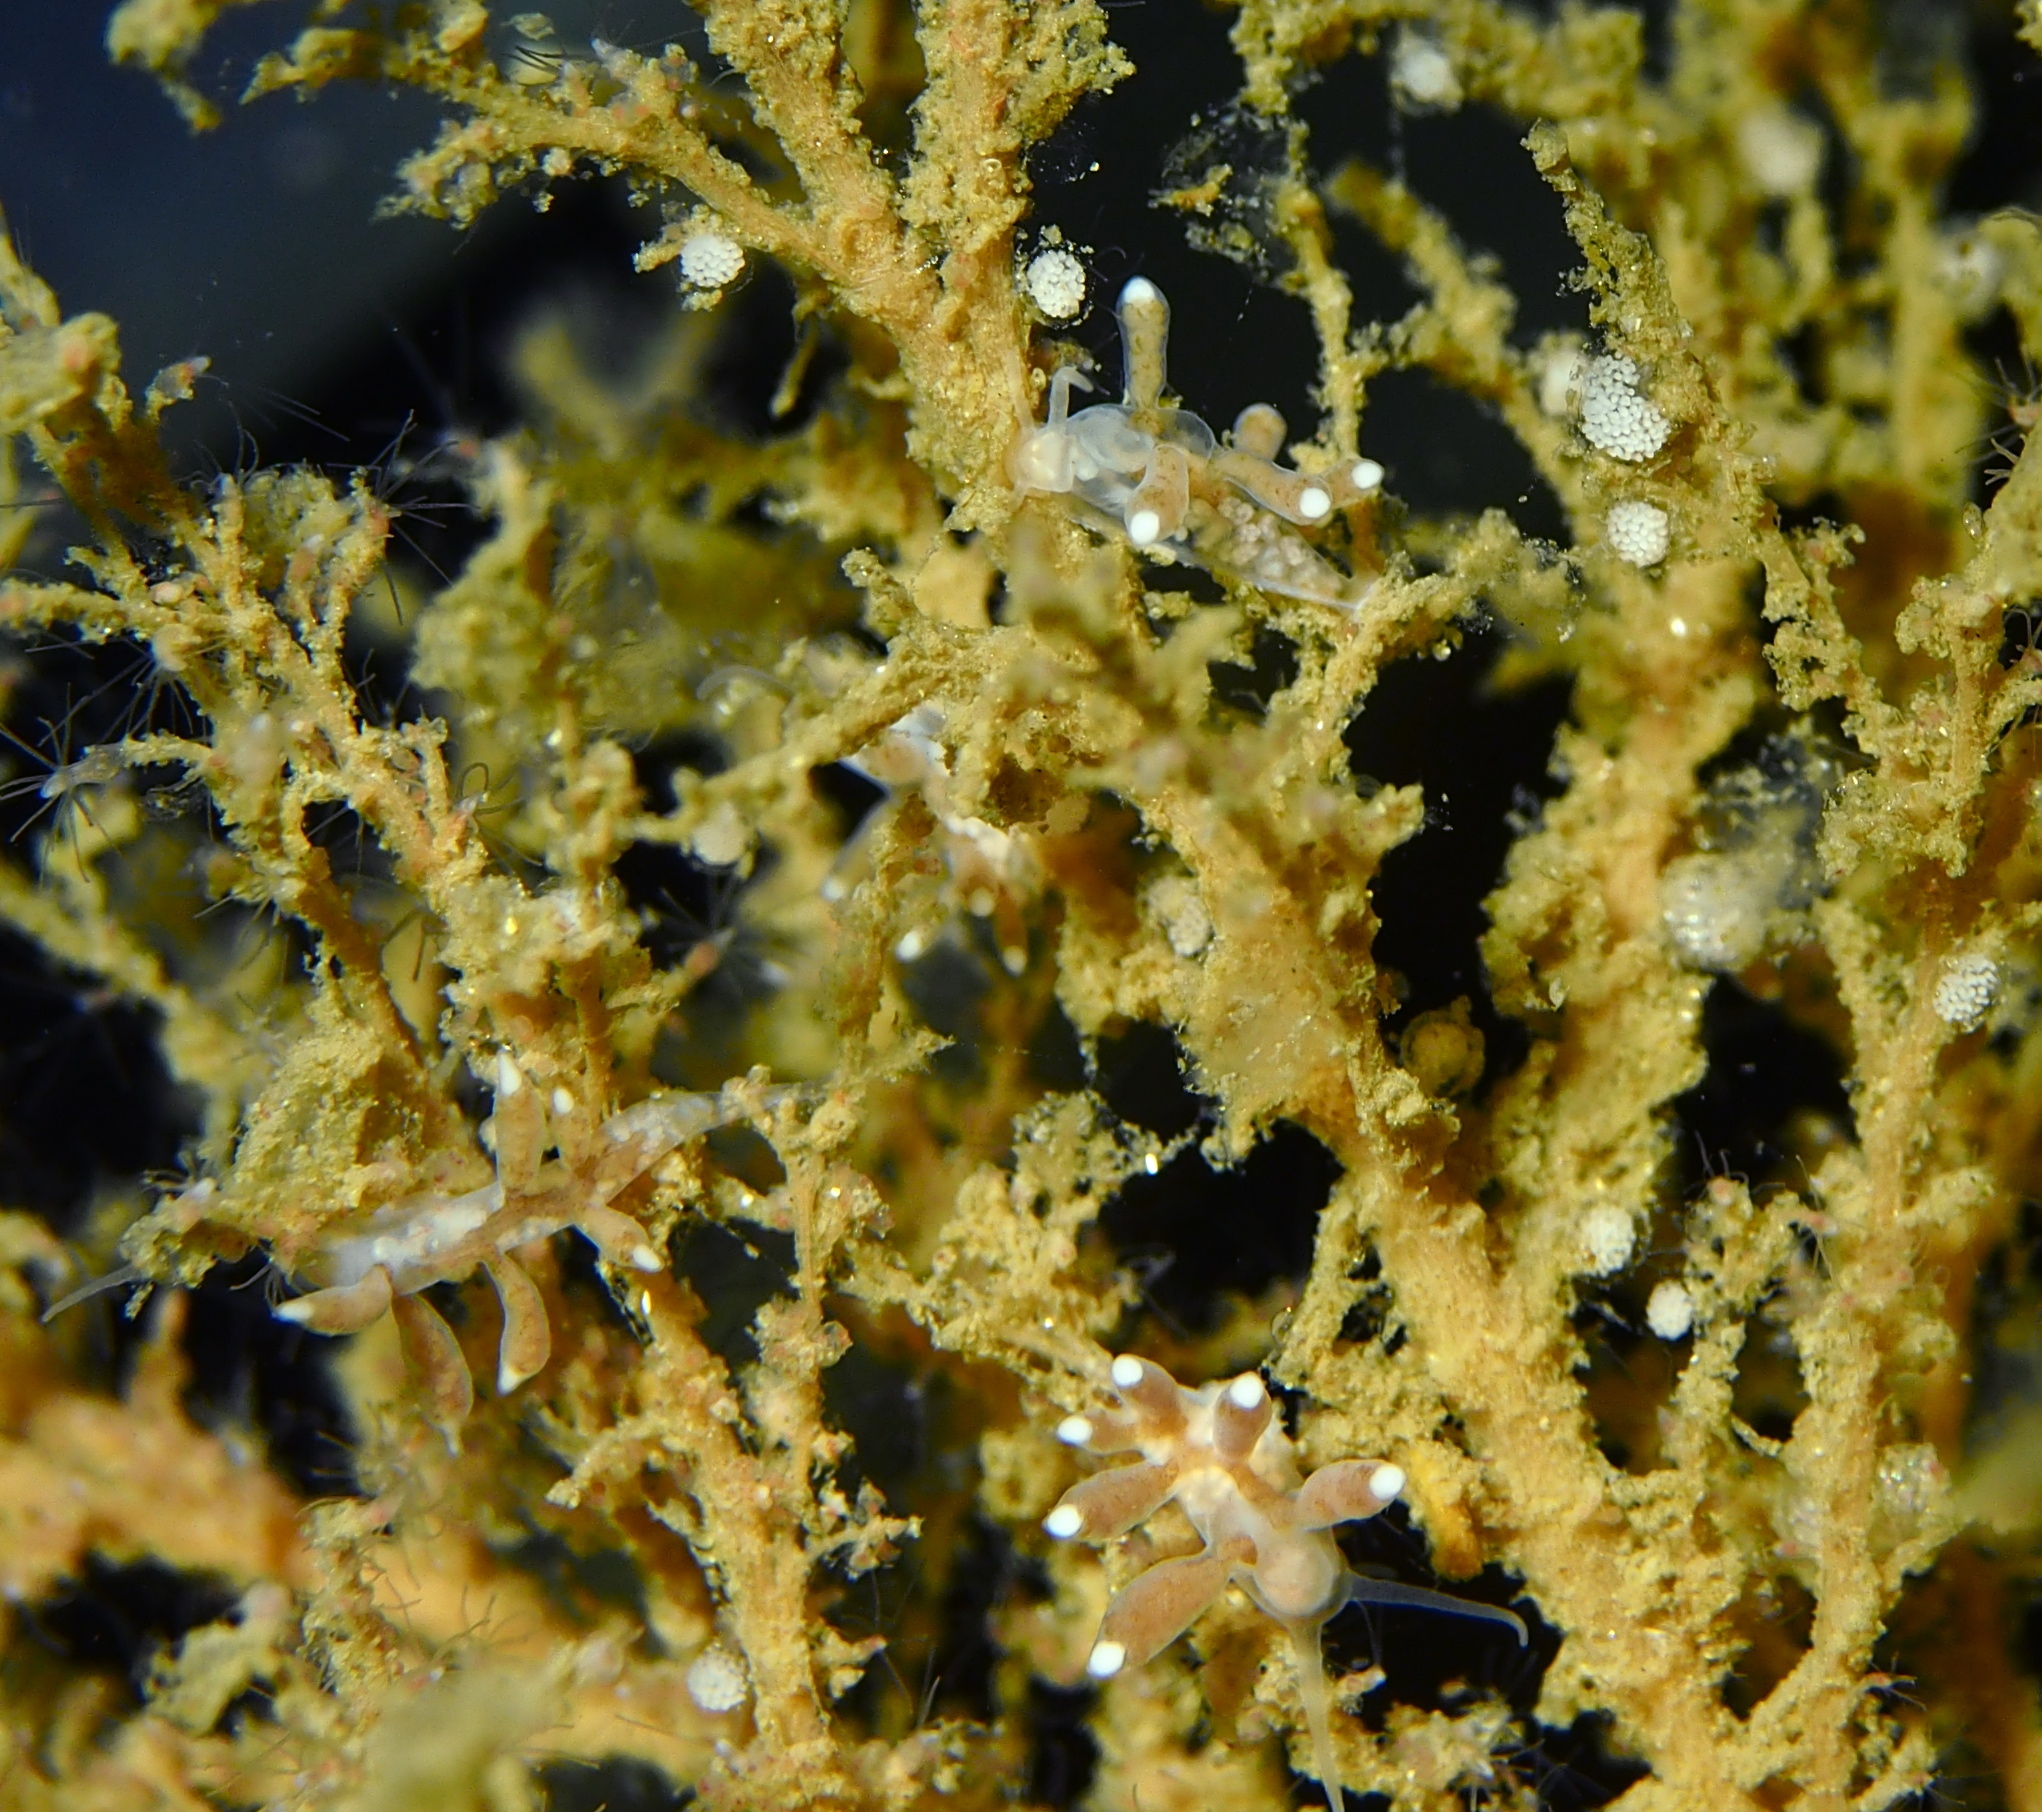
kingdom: Animalia
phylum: Mollusca
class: Gastropoda
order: Nudibranchia
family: Tergipedidae
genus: Tergipes
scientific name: Tergipes tergipes
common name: Johnston's balloon eolis
